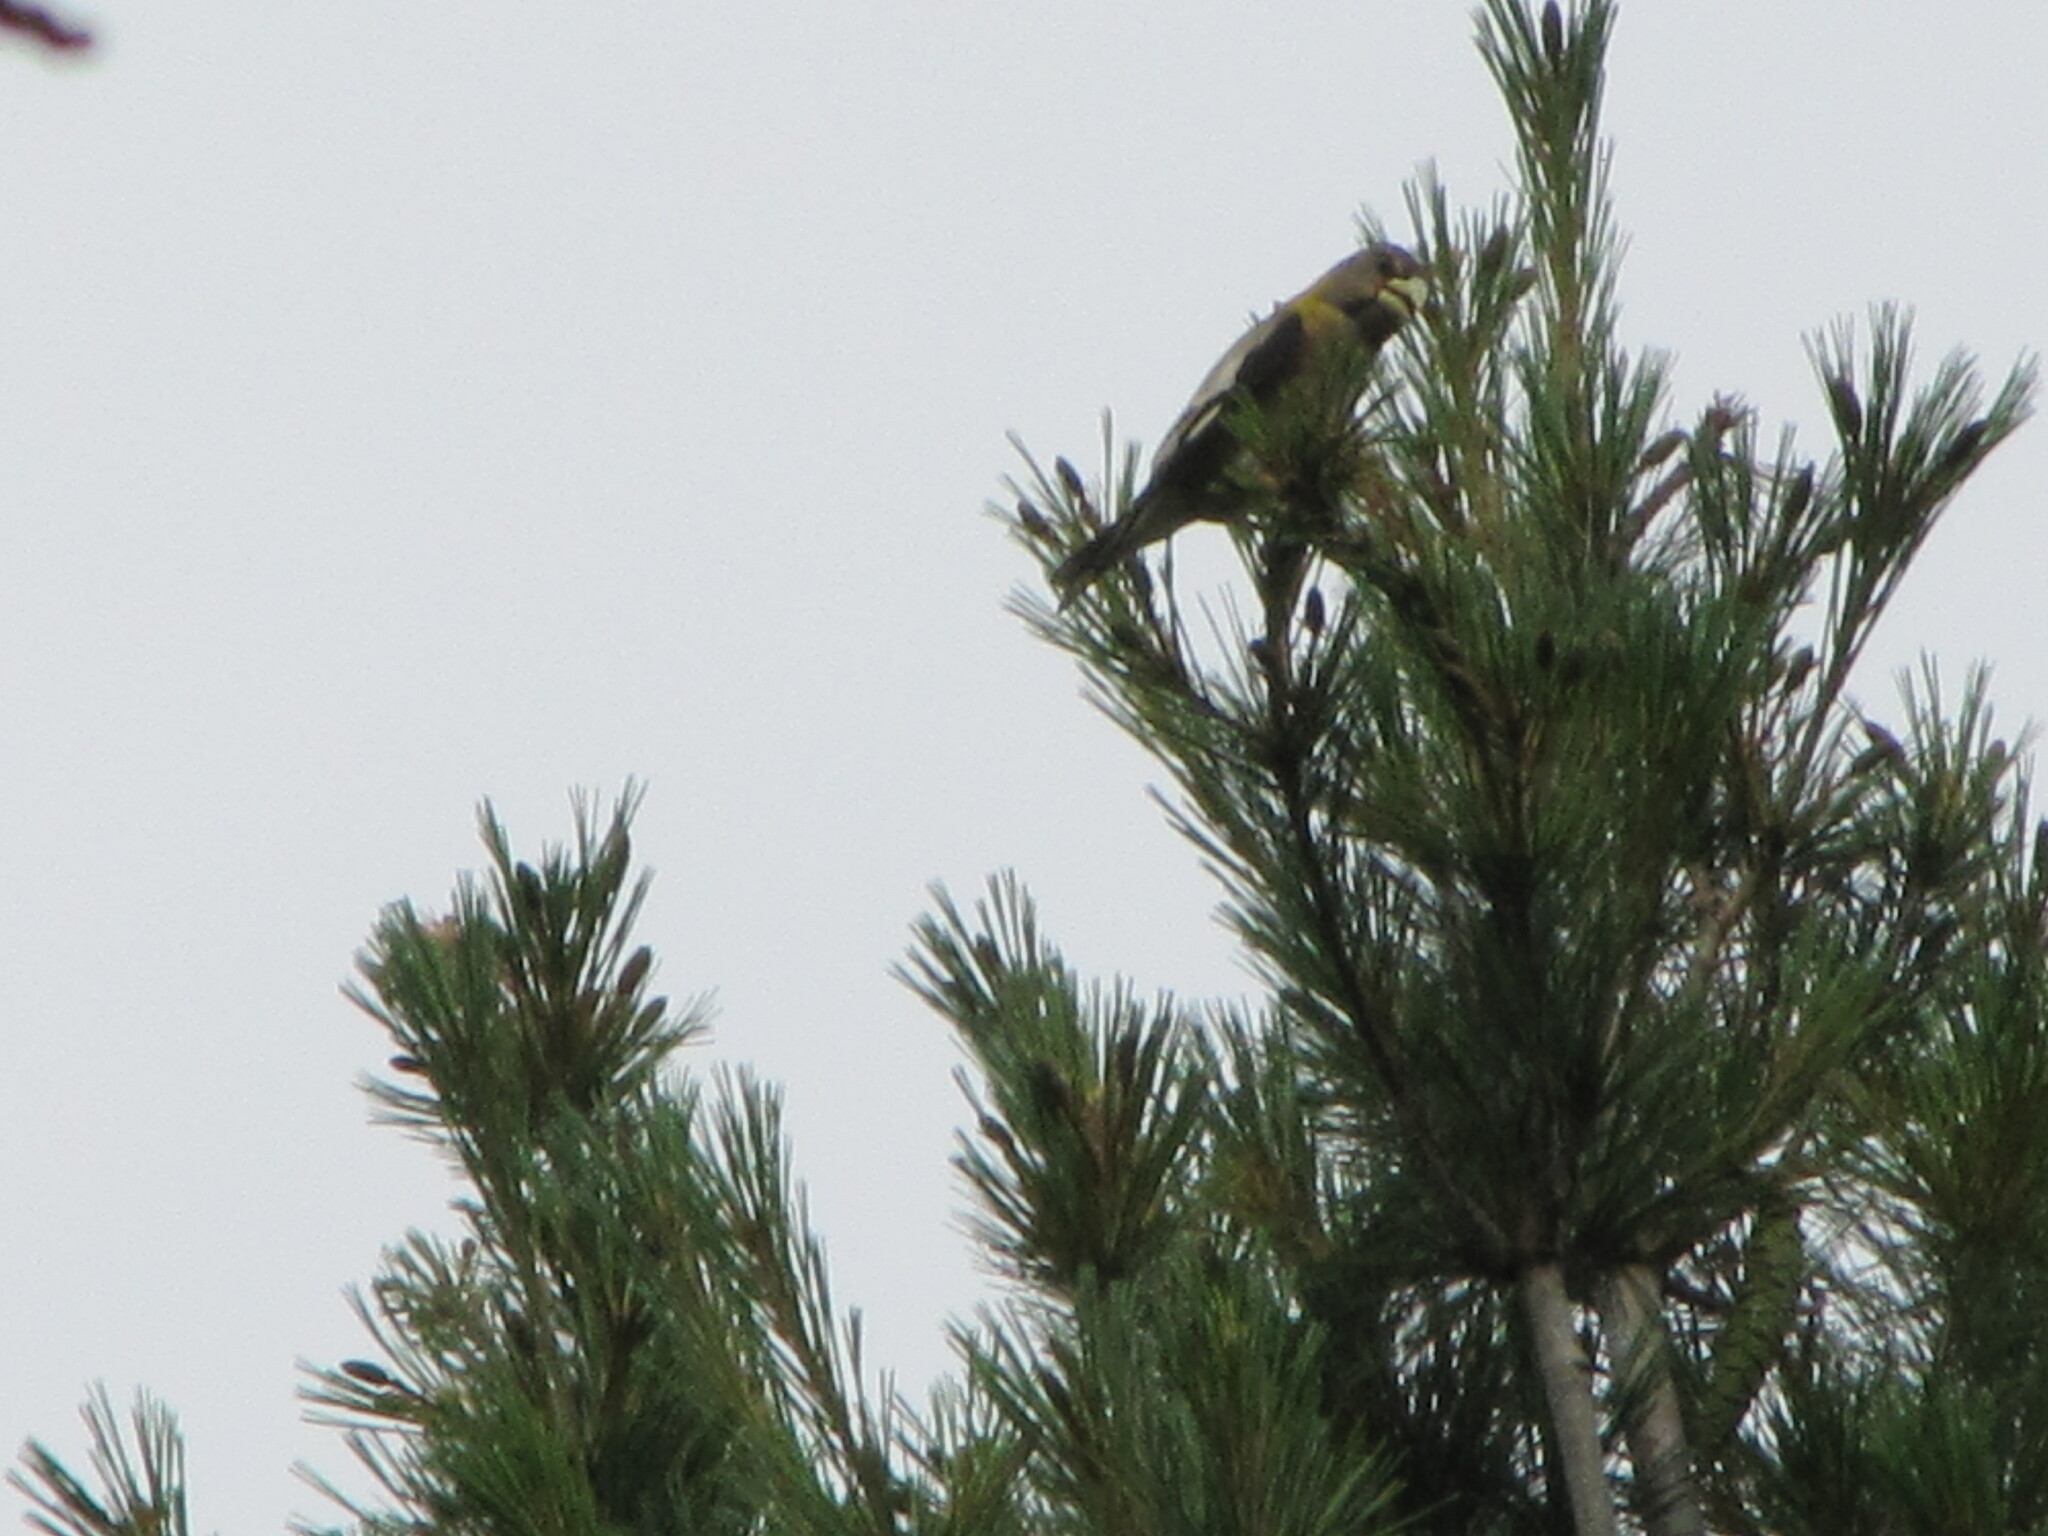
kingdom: Animalia
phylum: Chordata
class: Aves
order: Passeriformes
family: Fringillidae
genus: Hesperiphona
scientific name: Hesperiphona vespertina
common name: Evening grosbeak
